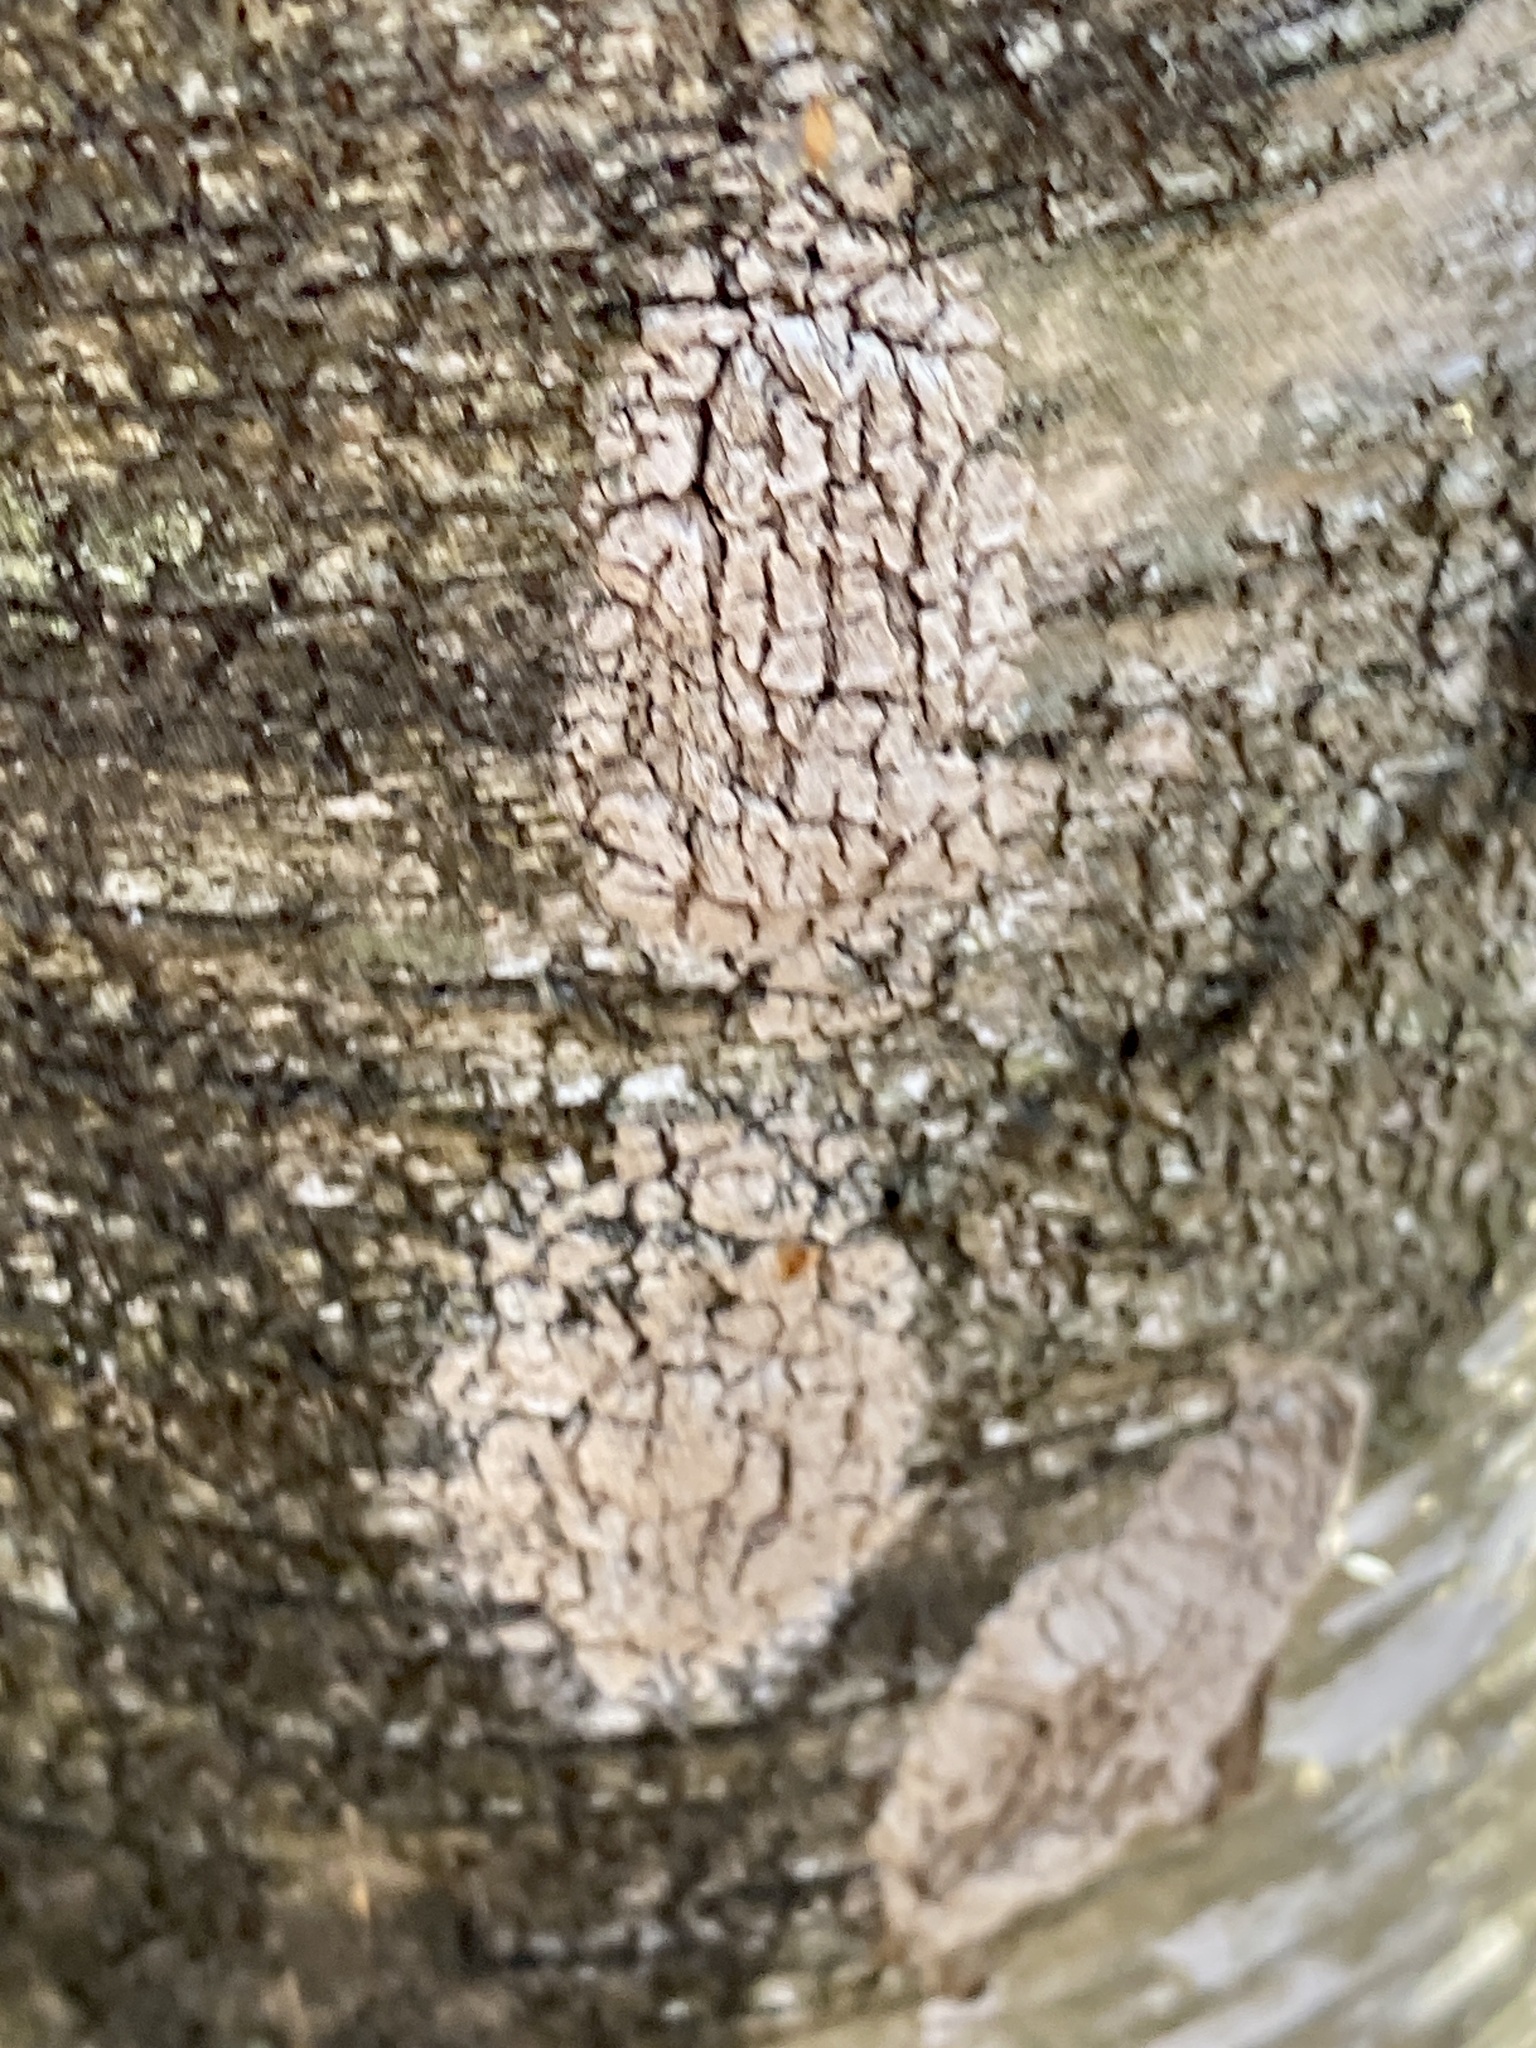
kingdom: Animalia
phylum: Arthropoda
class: Insecta
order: Hemiptera
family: Fulgoridae
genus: Lycorma
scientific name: Lycorma delicatula
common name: Spotted lanternfly
